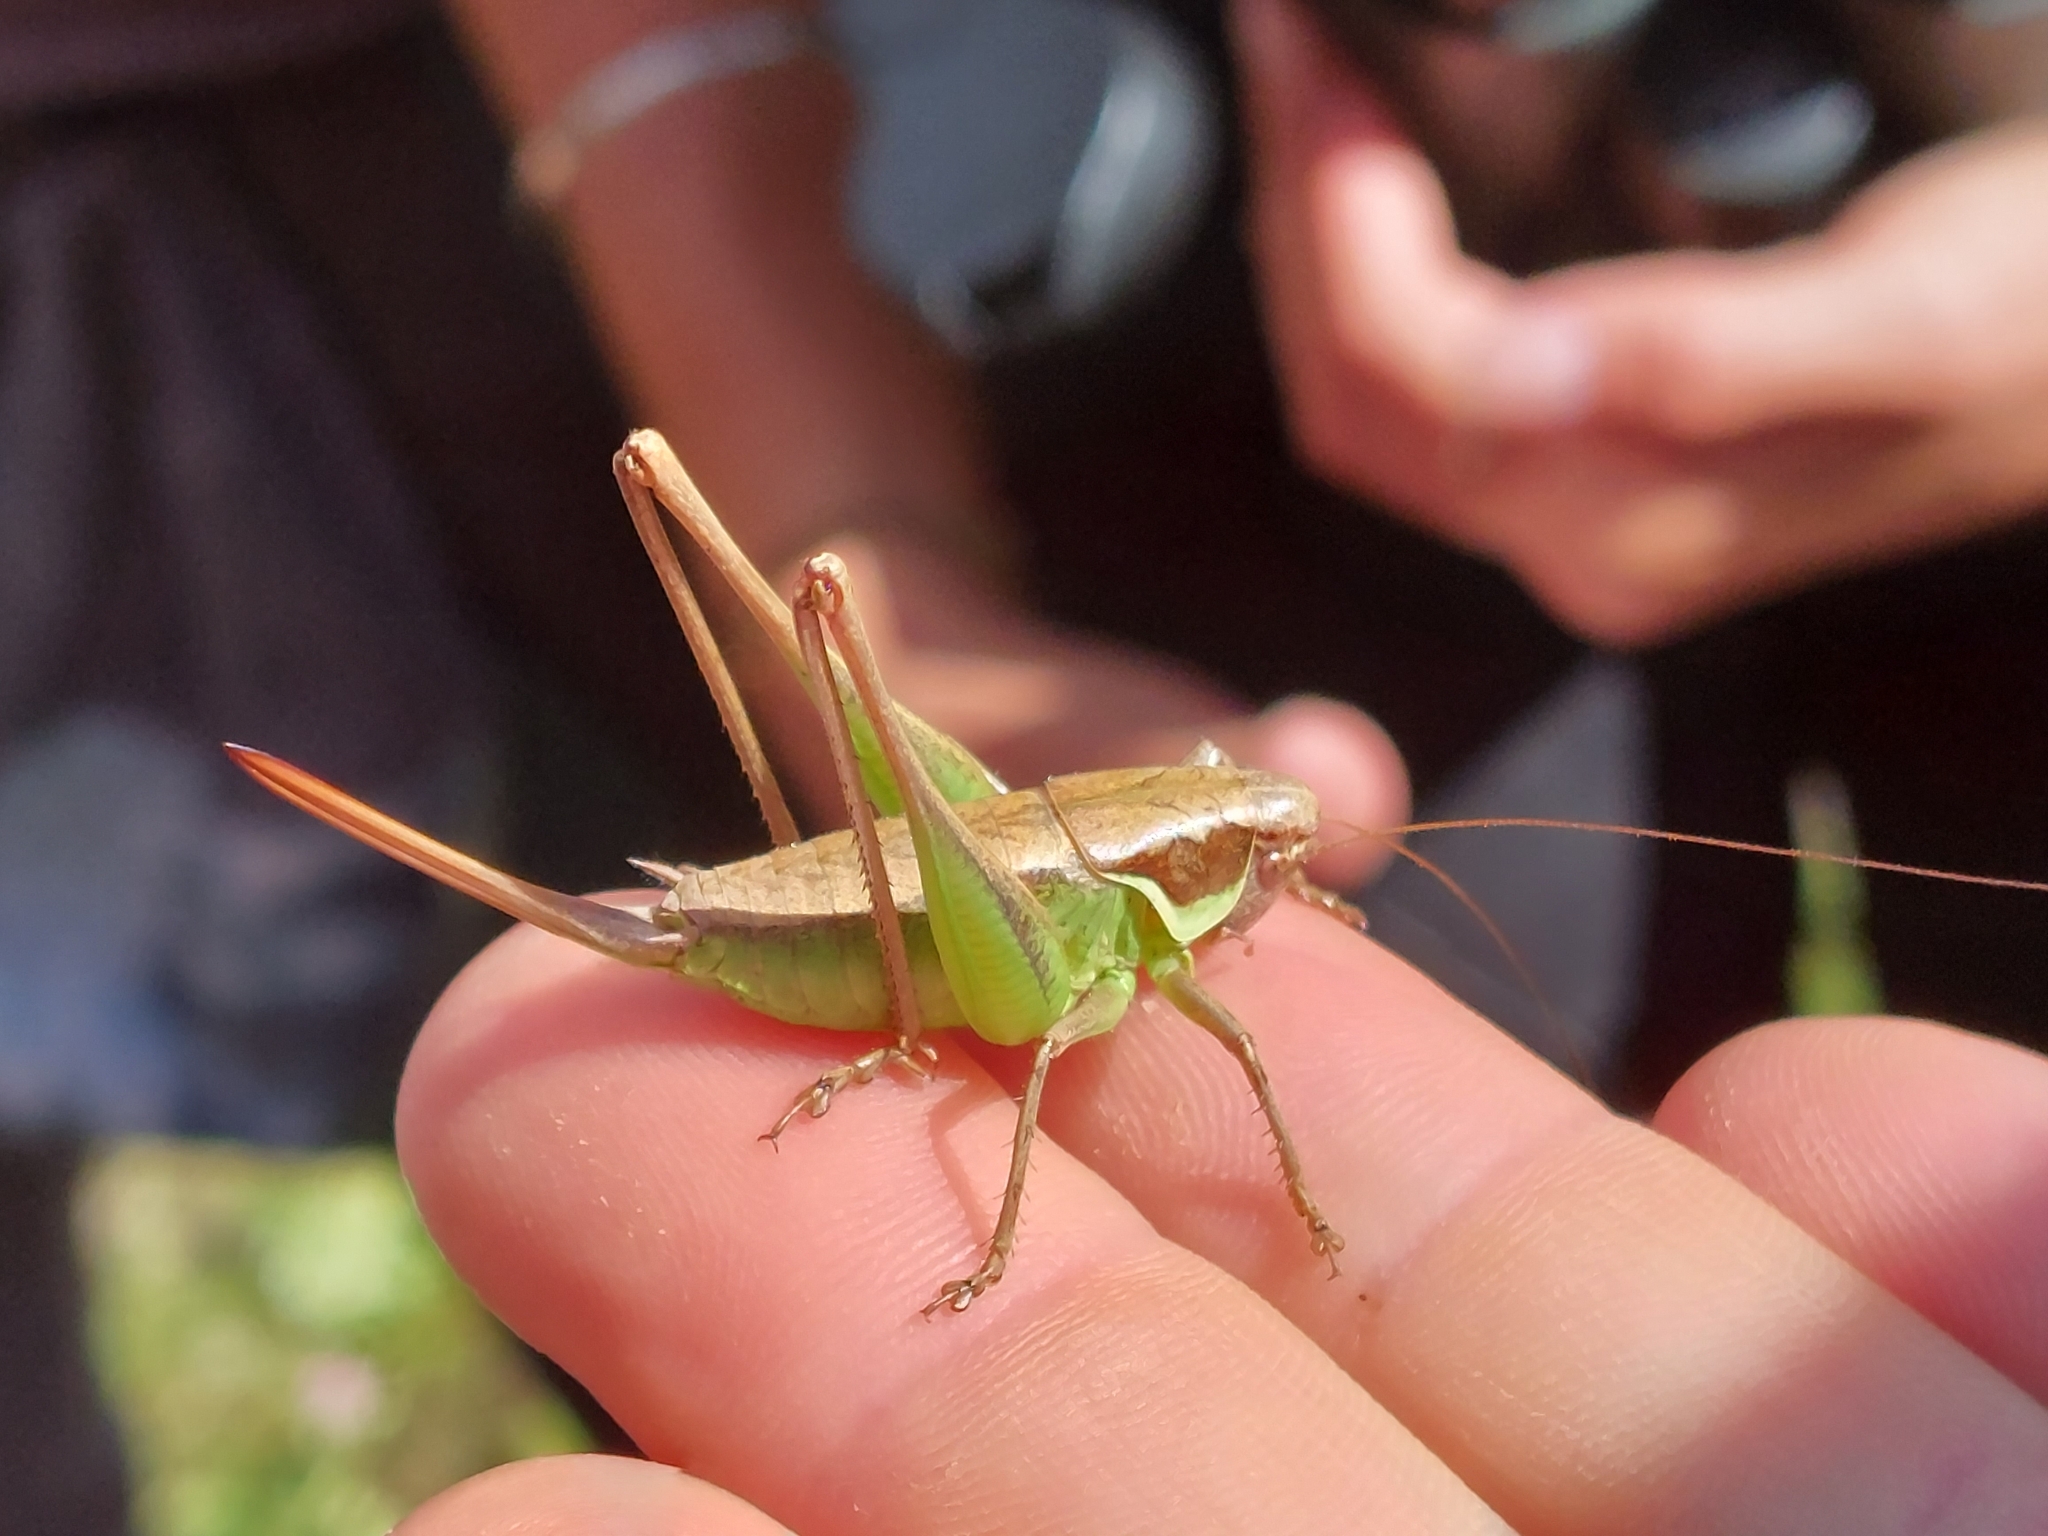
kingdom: Animalia
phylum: Arthropoda
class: Insecta
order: Orthoptera
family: Tettigoniidae
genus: Pholidoptera
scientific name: Pholidoptera littoralis
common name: Littoral dark bush-cricket
